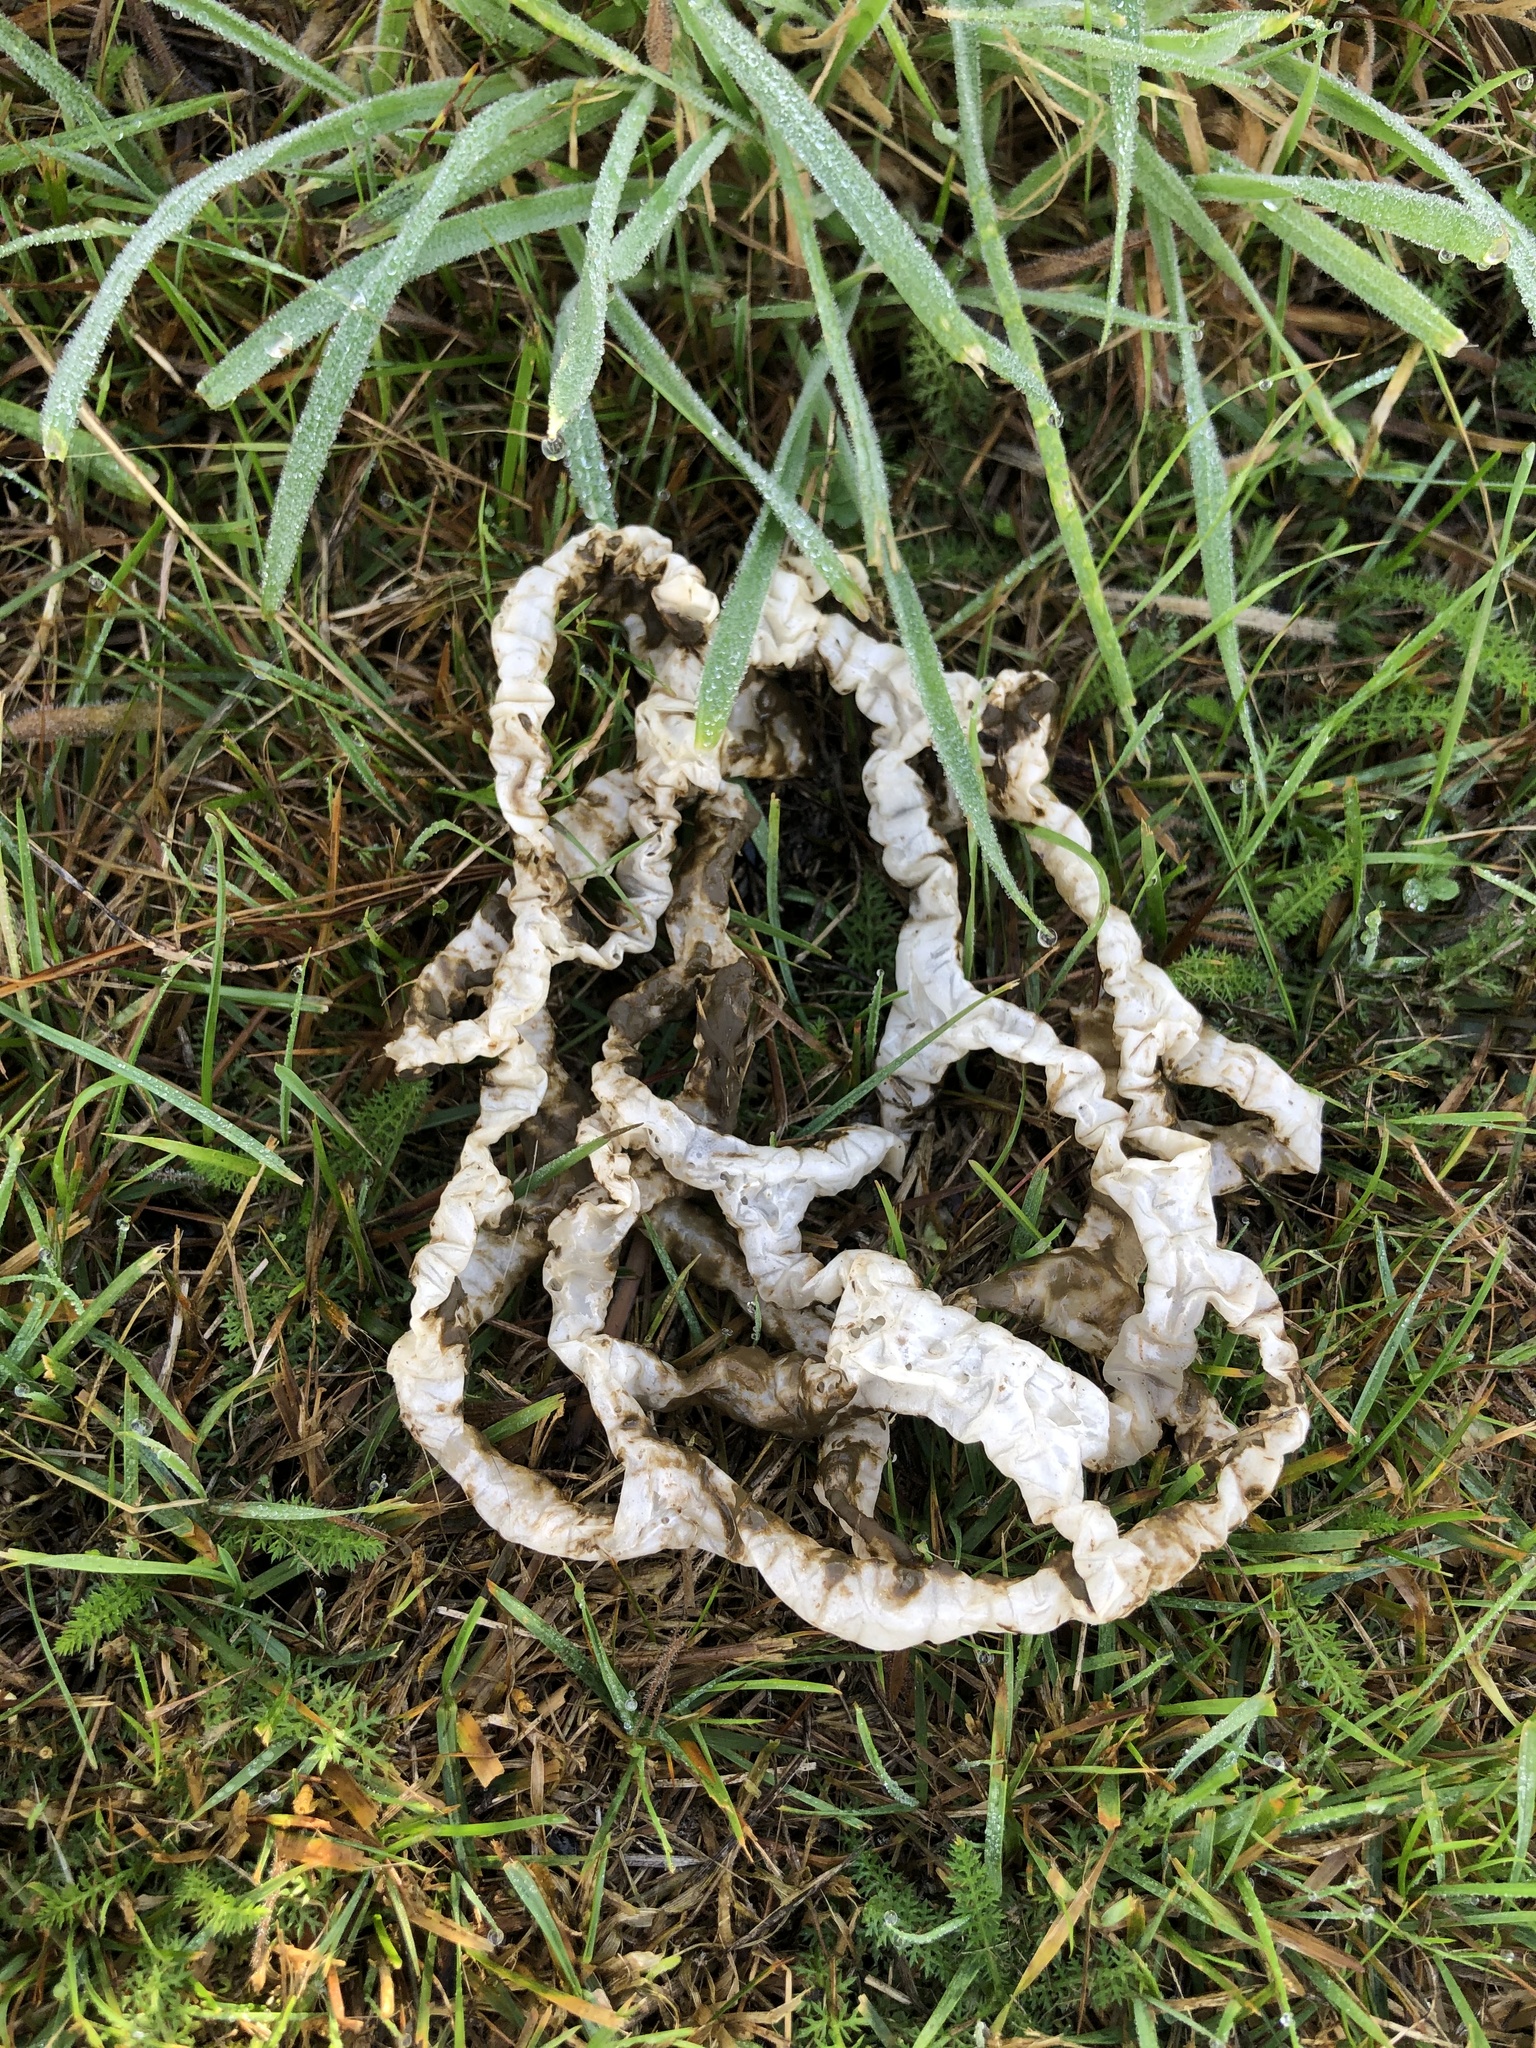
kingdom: Fungi
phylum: Basidiomycota
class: Agaricomycetes
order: Phallales
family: Phallaceae
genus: Ileodictyon
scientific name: Ileodictyon cibarium
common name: Basket fungus
